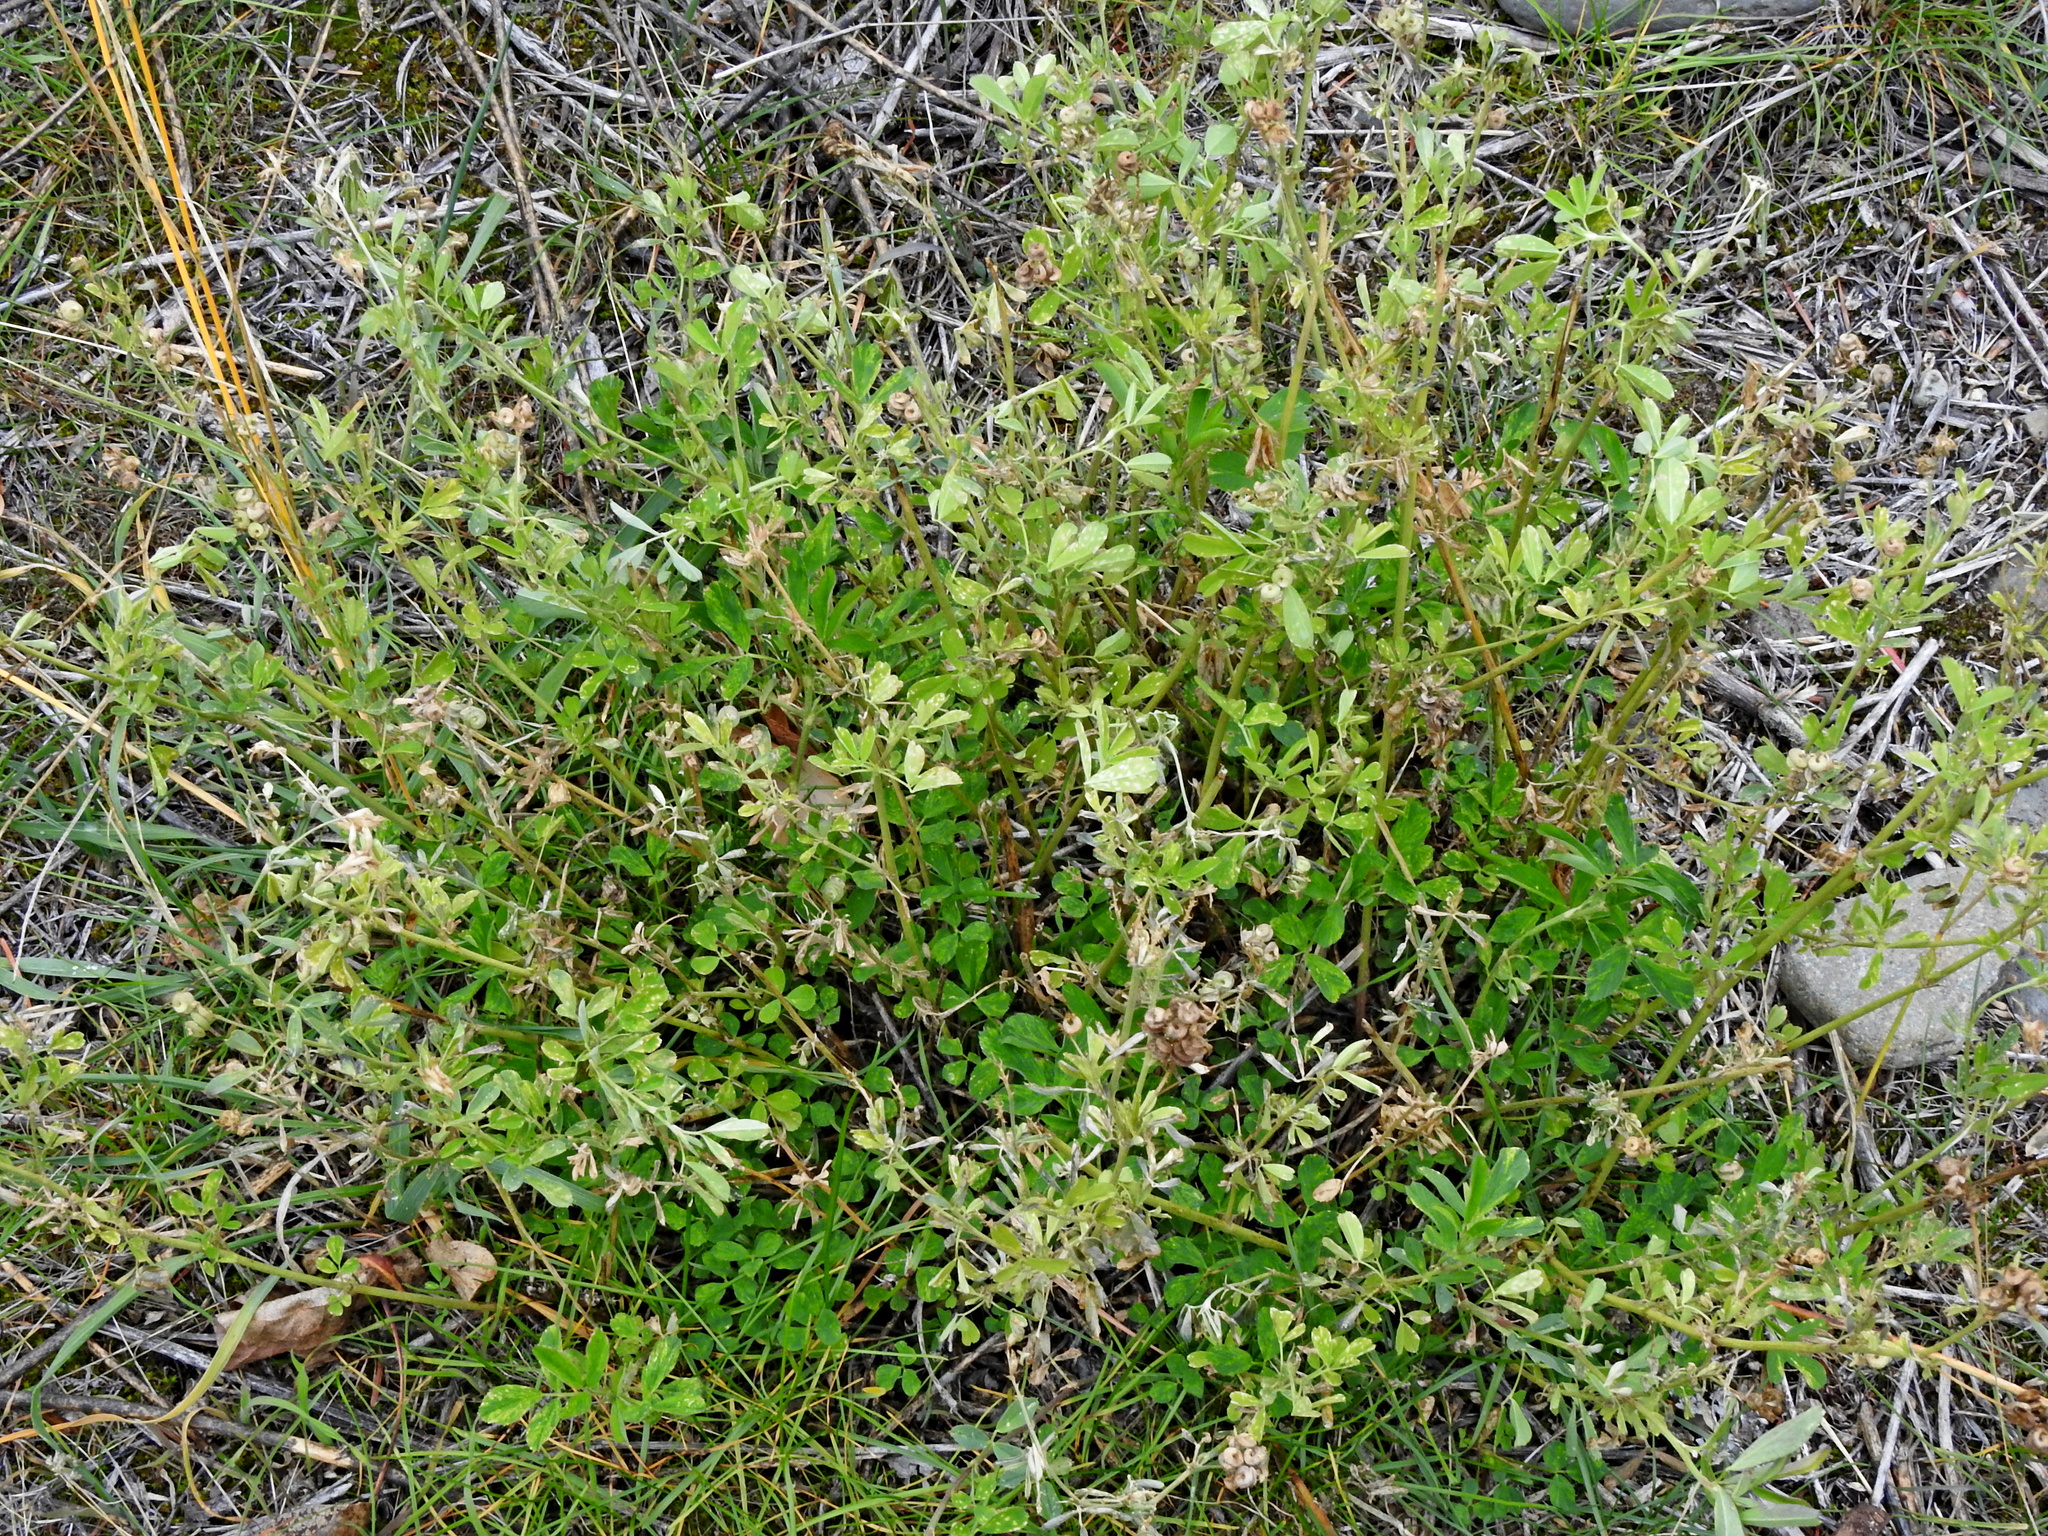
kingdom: Plantae
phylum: Tracheophyta
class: Magnoliopsida
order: Fabales
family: Fabaceae
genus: Medicago
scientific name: Medicago sativa
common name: Alfalfa
